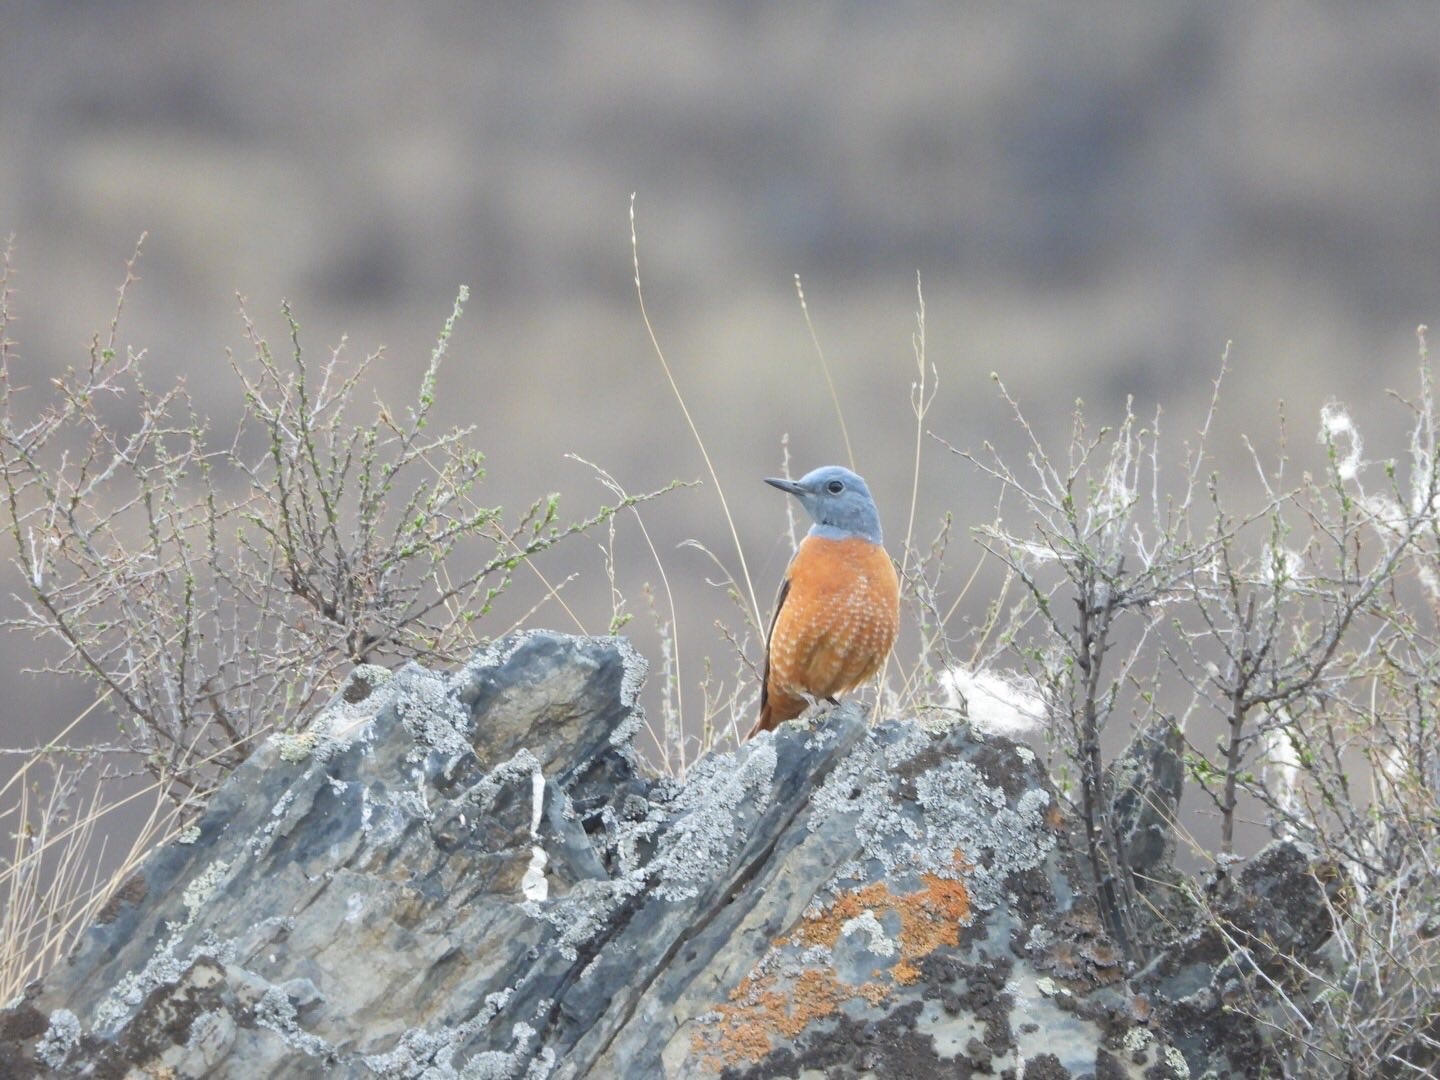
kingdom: Animalia
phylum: Chordata
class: Aves
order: Passeriformes
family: Muscicapidae
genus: Monticola
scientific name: Monticola saxatilis
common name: Rufous-tailed rock thrush
